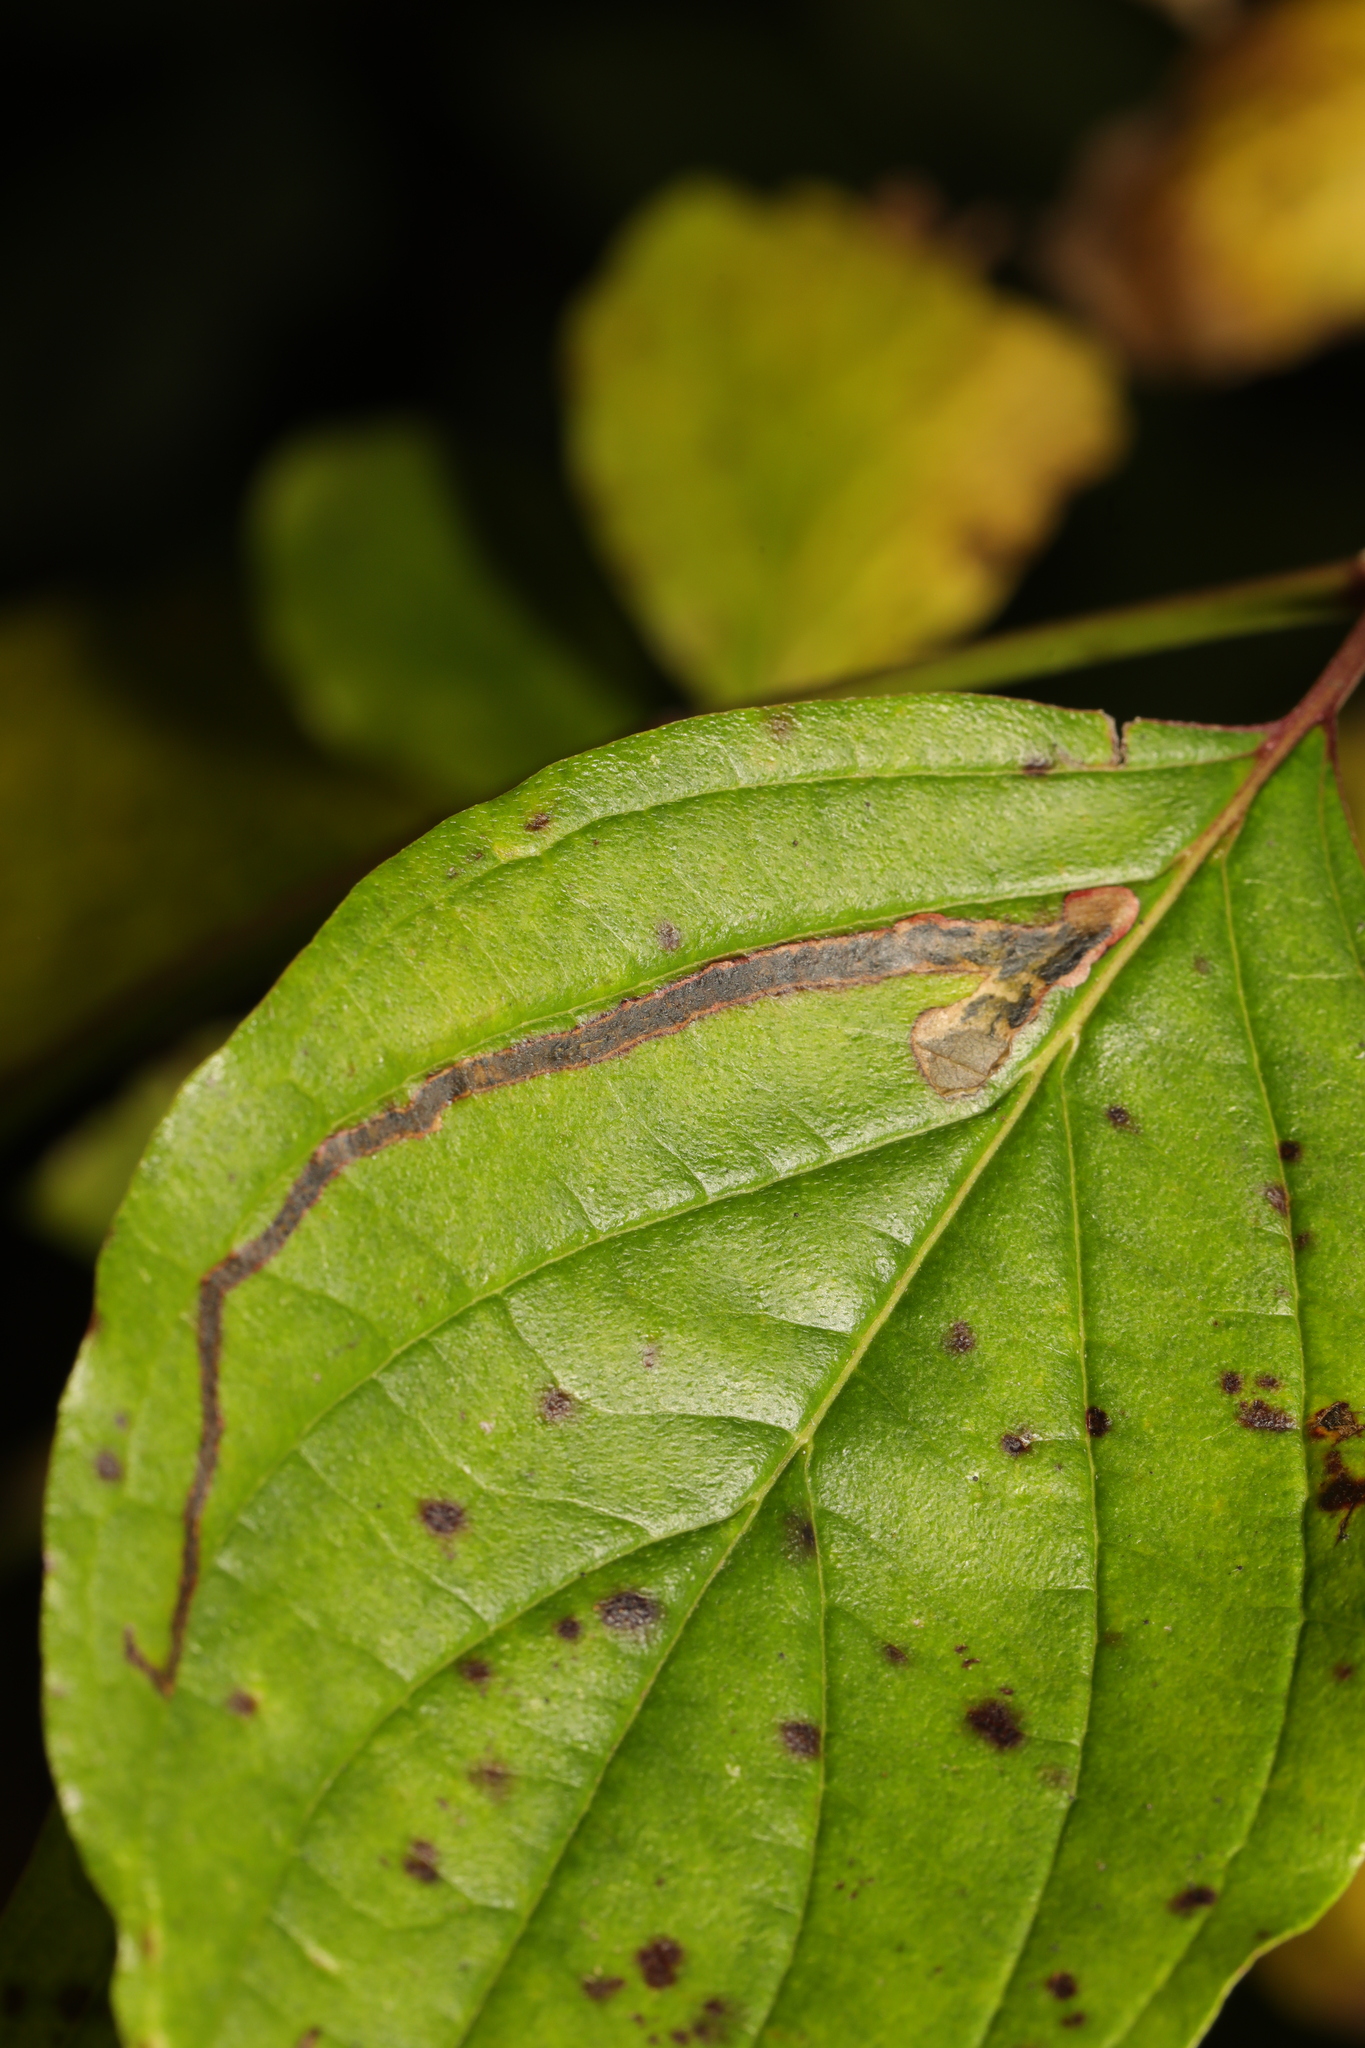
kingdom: Animalia
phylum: Arthropoda
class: Insecta
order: Diptera
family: Agromyzidae
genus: Phytomyza
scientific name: Phytomyza agromyzina
